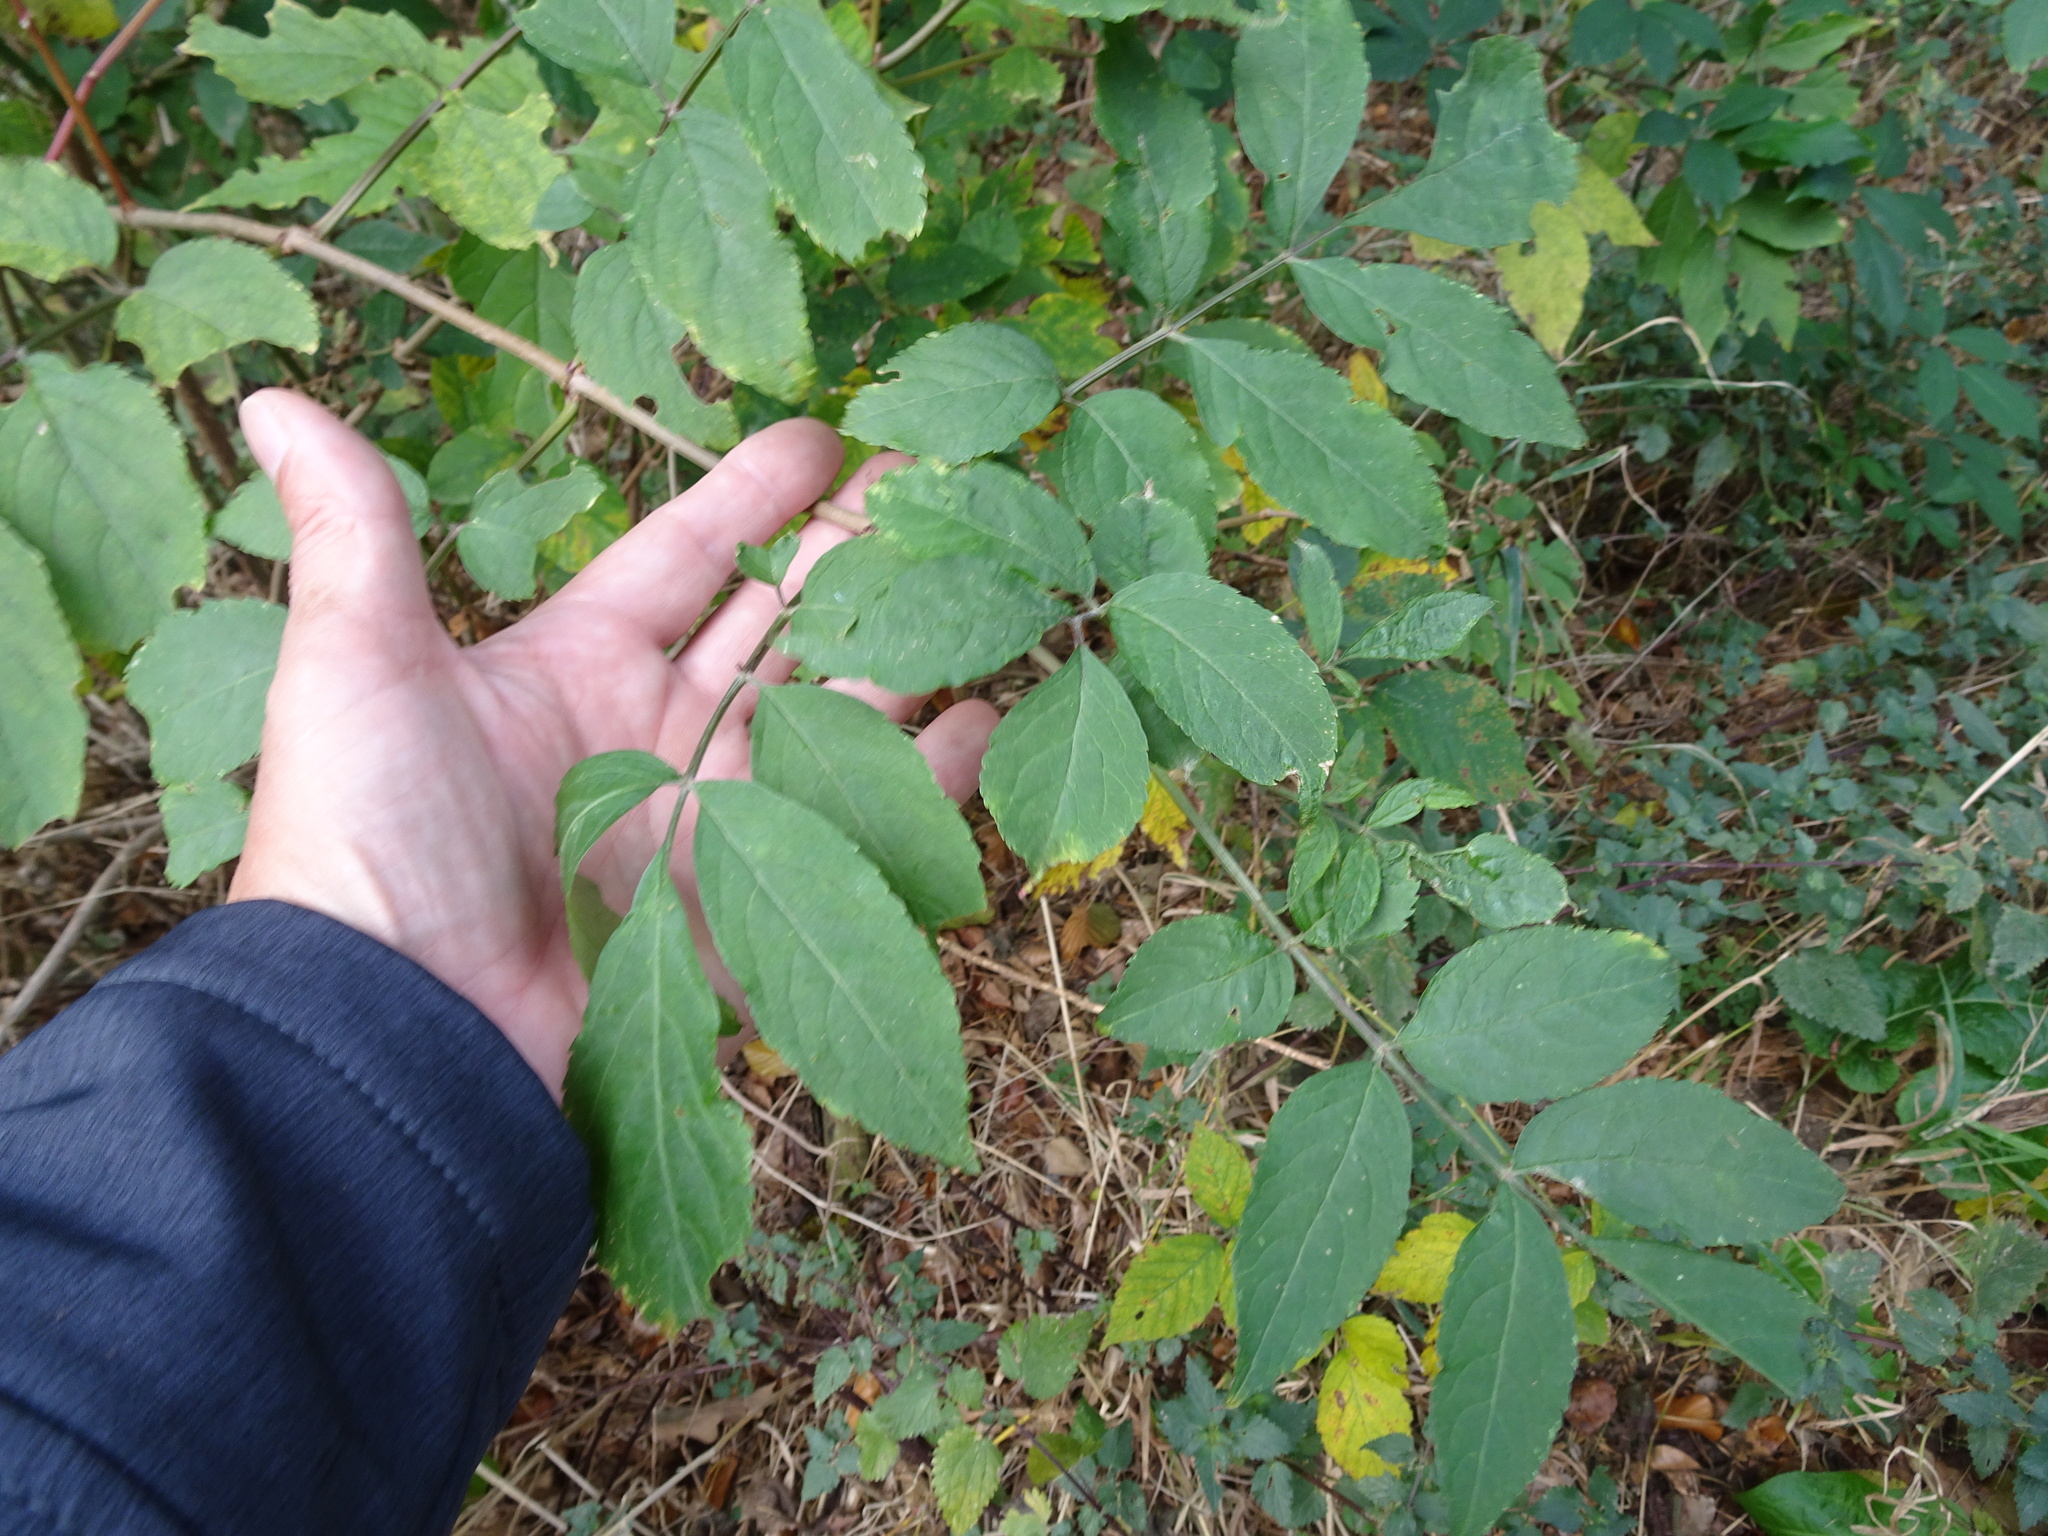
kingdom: Plantae
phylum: Tracheophyta
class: Magnoliopsida
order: Lamiales
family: Oleaceae
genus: Fraxinus
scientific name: Fraxinus excelsior
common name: European ash
